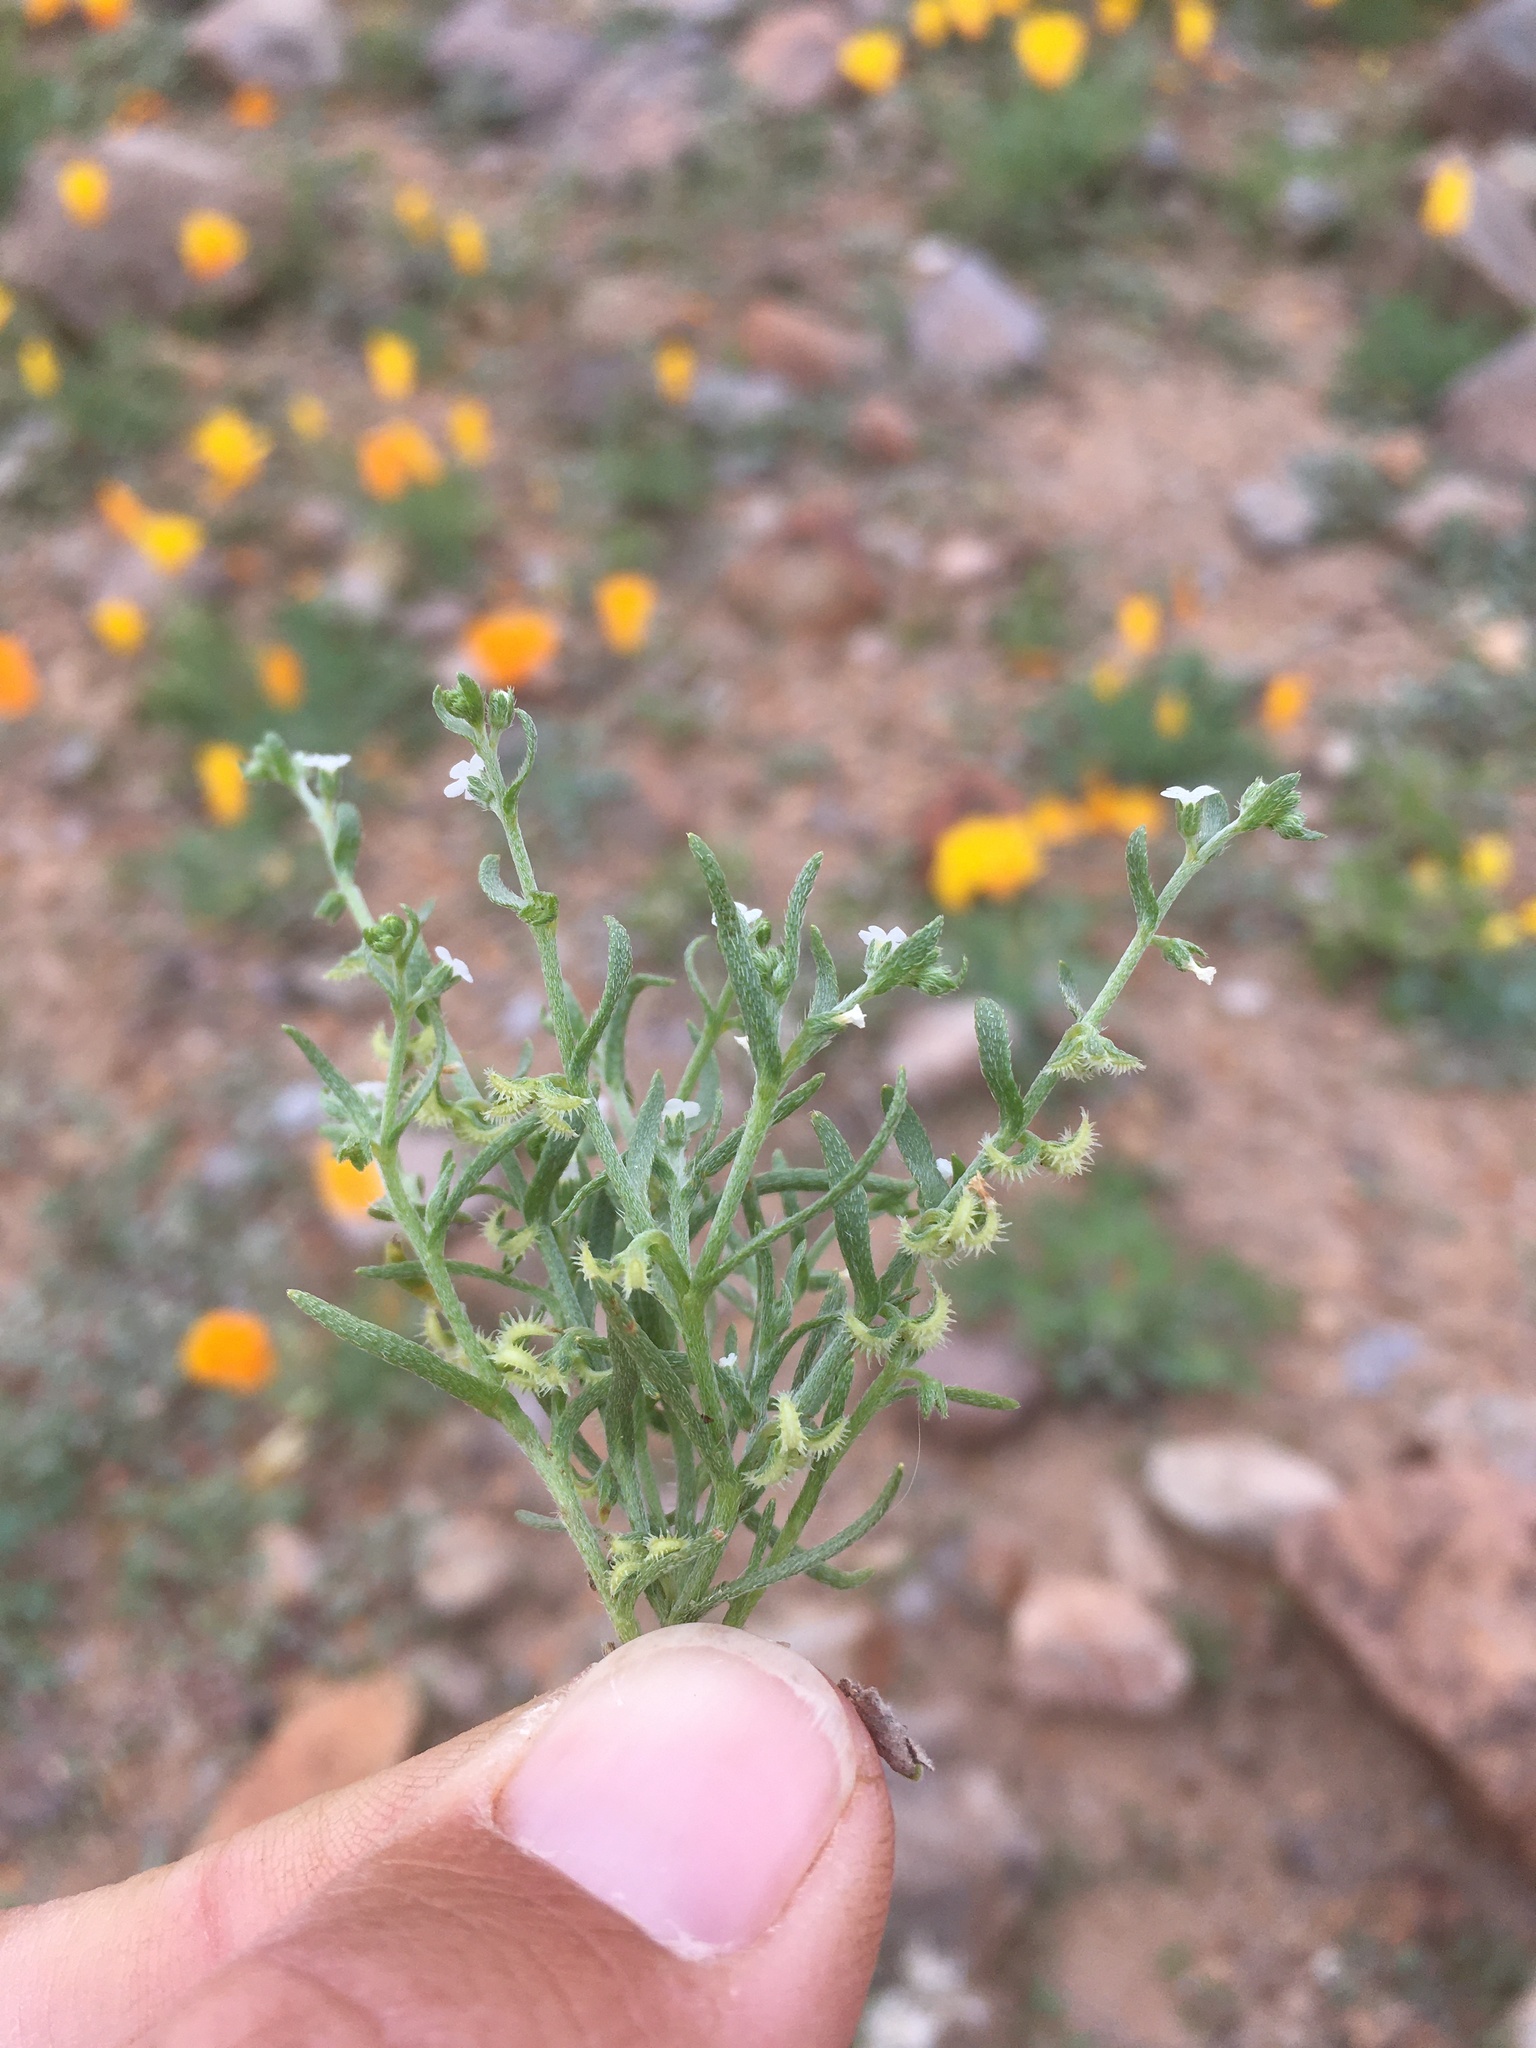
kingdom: Plantae
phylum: Tracheophyta
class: Magnoliopsida
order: Boraginales
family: Boraginaceae
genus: Pectocarya
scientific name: Pectocarya recurvata
